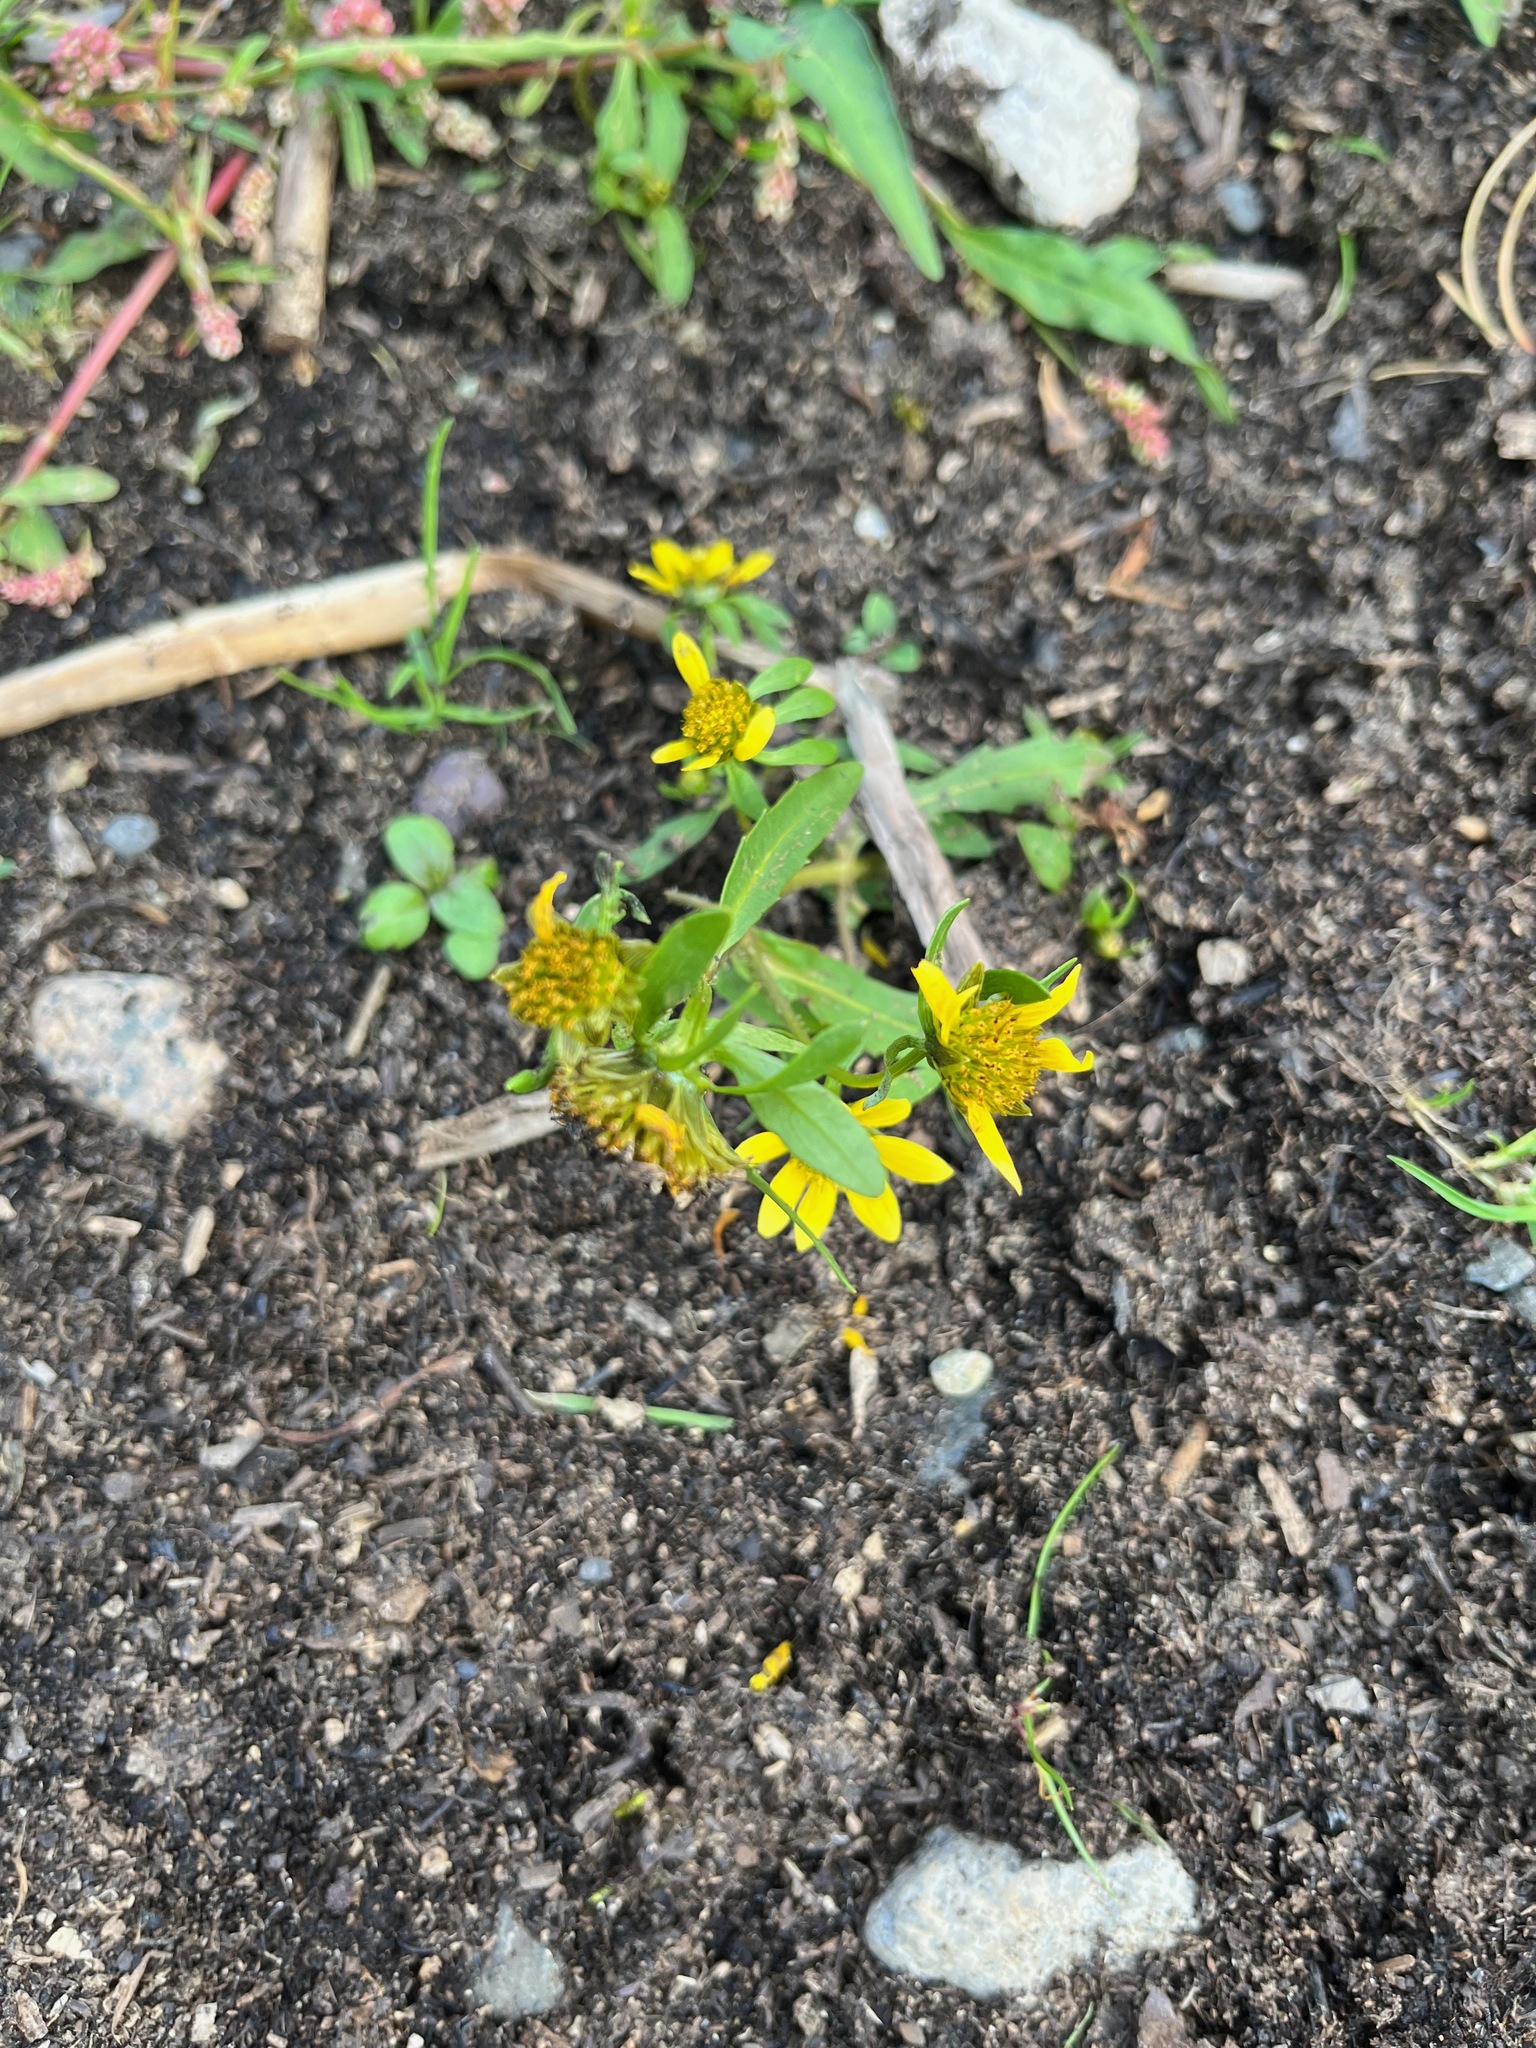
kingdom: Plantae
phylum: Tracheophyta
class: Magnoliopsida
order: Asterales
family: Asteraceae
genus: Bidens
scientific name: Bidens cernua
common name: Nodding bur-marigold
